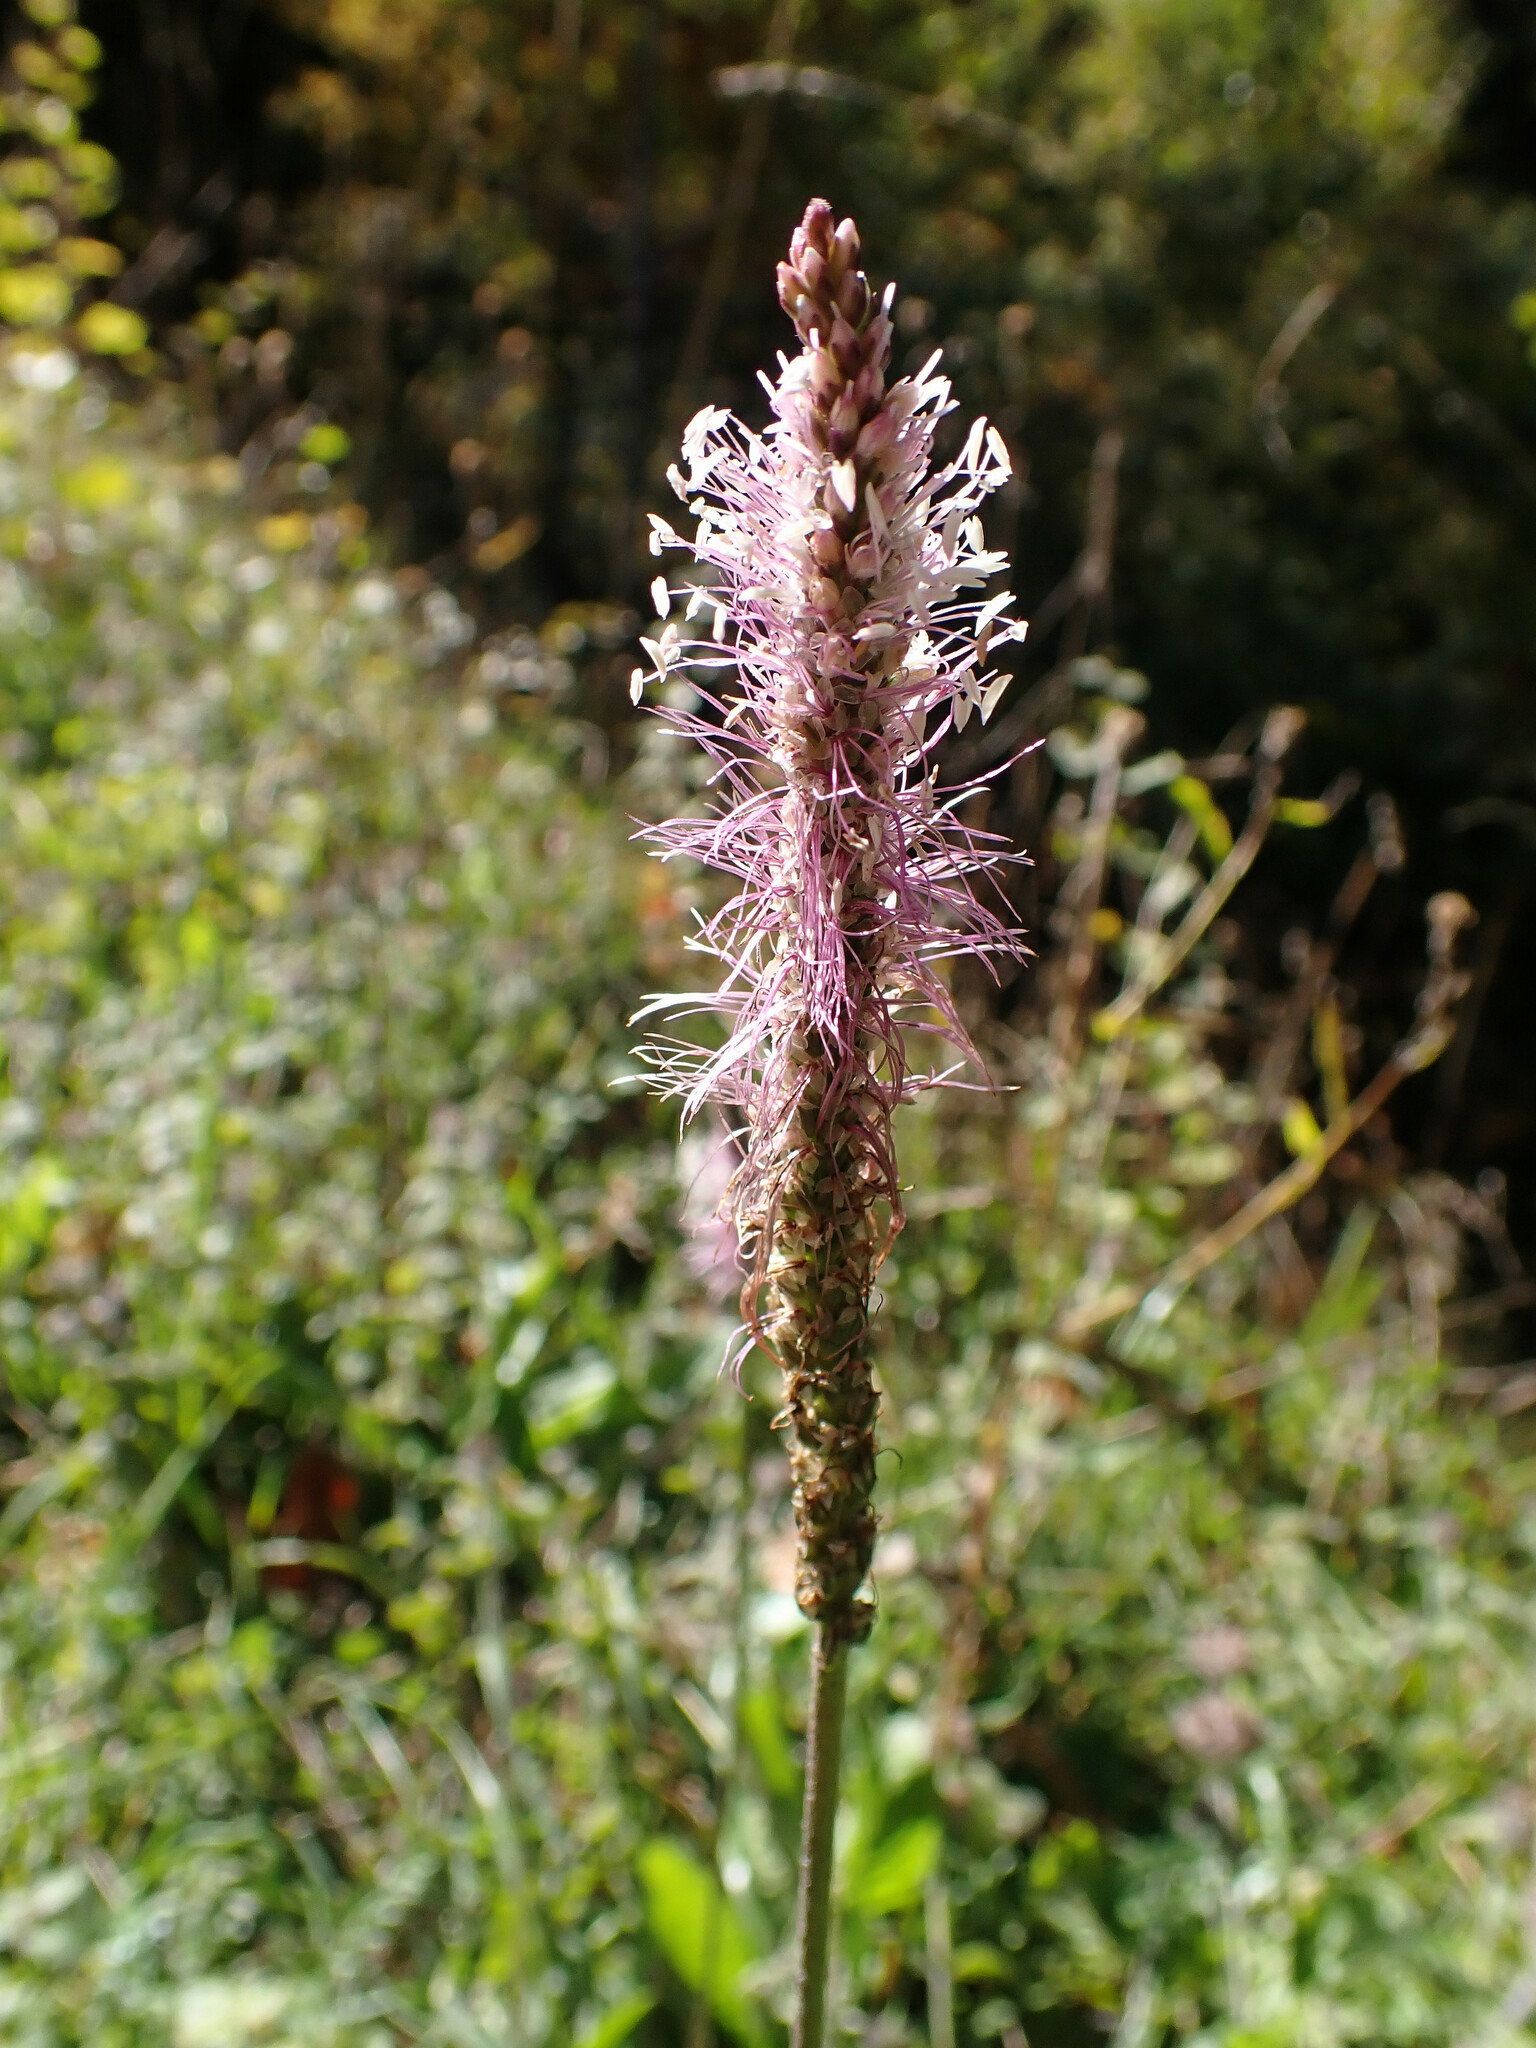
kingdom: Plantae
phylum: Tracheophyta
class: Magnoliopsida
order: Lamiales
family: Plantaginaceae
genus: Plantago
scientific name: Plantago media
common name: Hoary plantain
